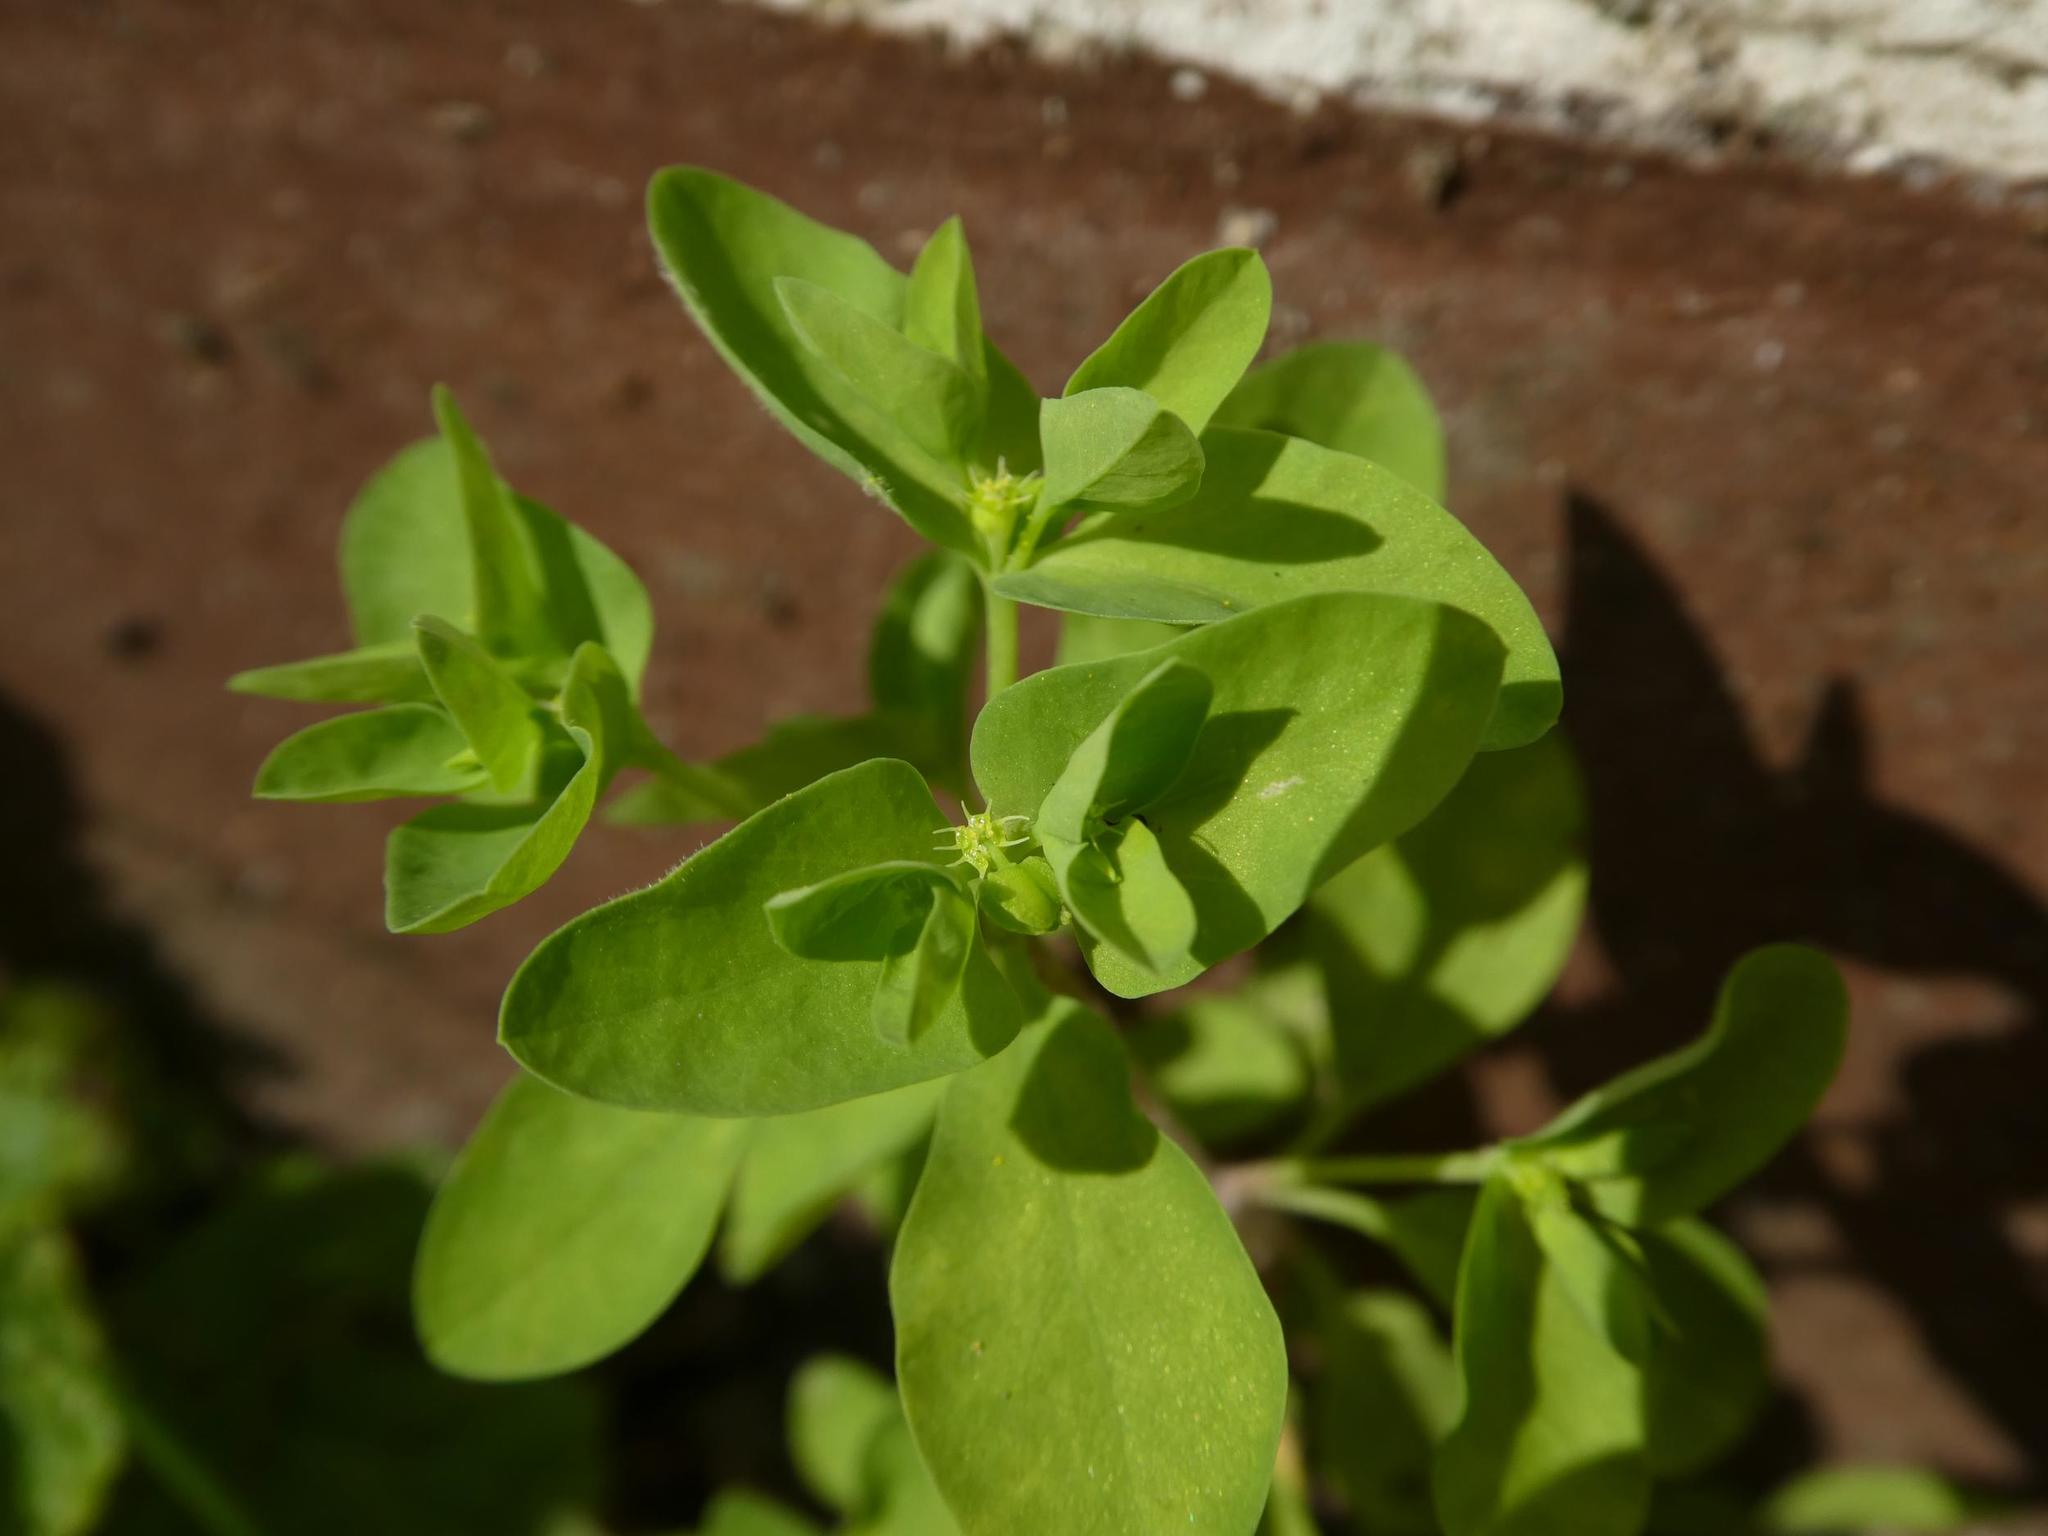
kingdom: Plantae
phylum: Tracheophyta
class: Magnoliopsida
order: Malpighiales
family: Euphorbiaceae
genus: Euphorbia
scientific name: Euphorbia peplus
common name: Petty spurge
